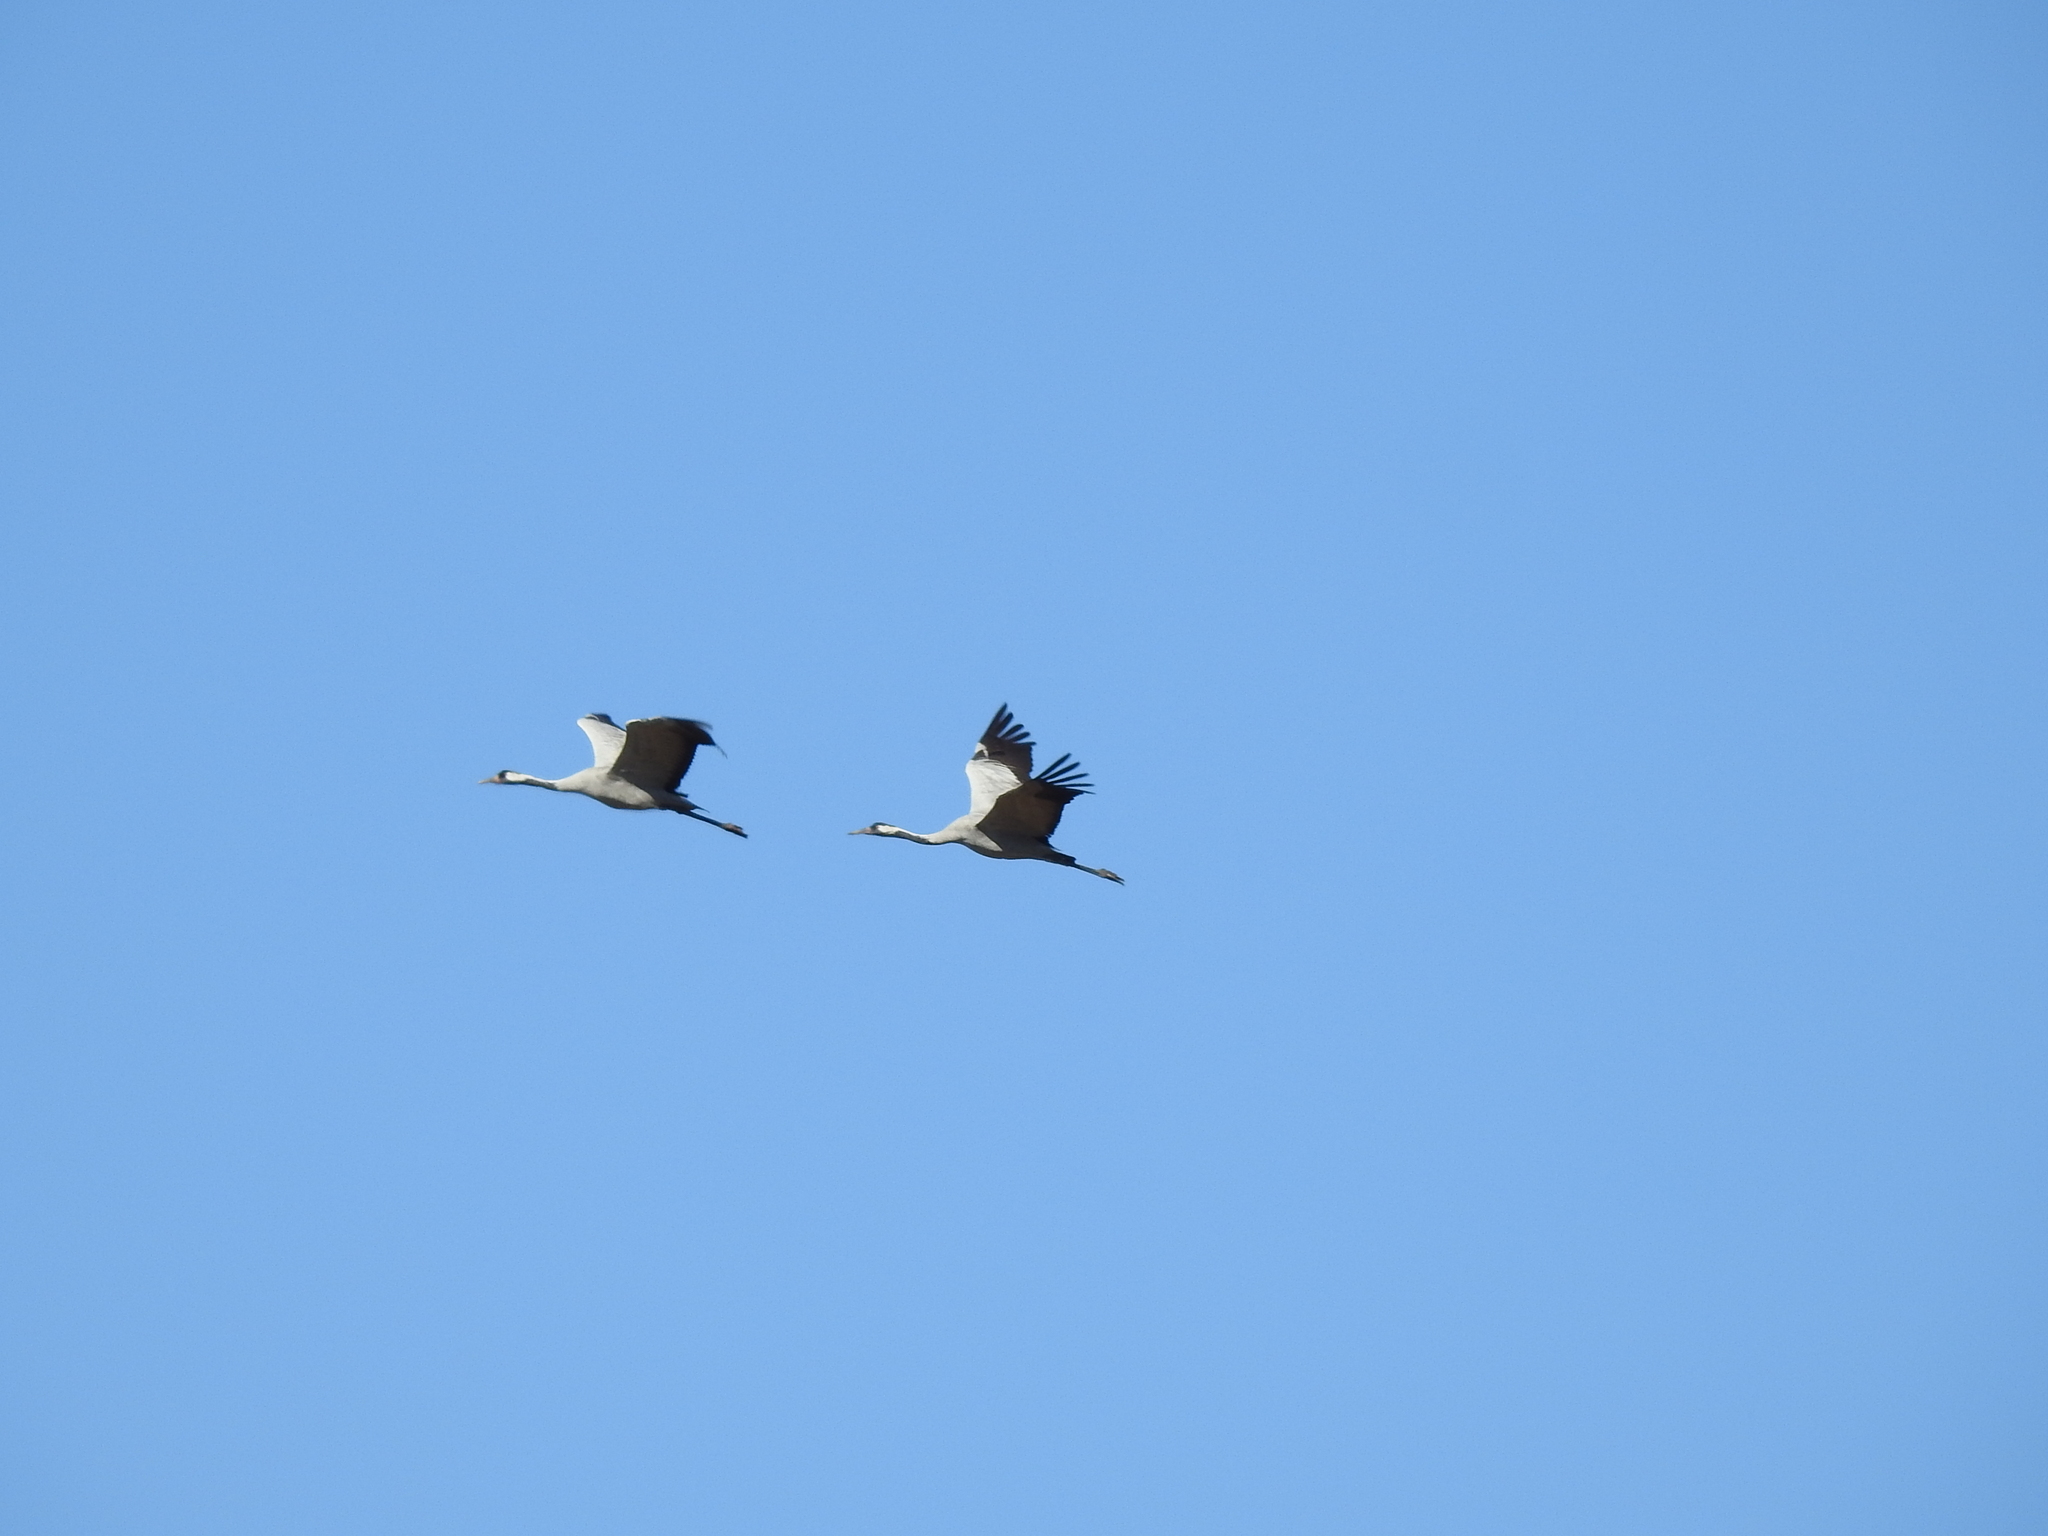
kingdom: Animalia
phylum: Chordata
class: Aves
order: Gruiformes
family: Gruidae
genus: Grus
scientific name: Grus grus
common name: Common crane
